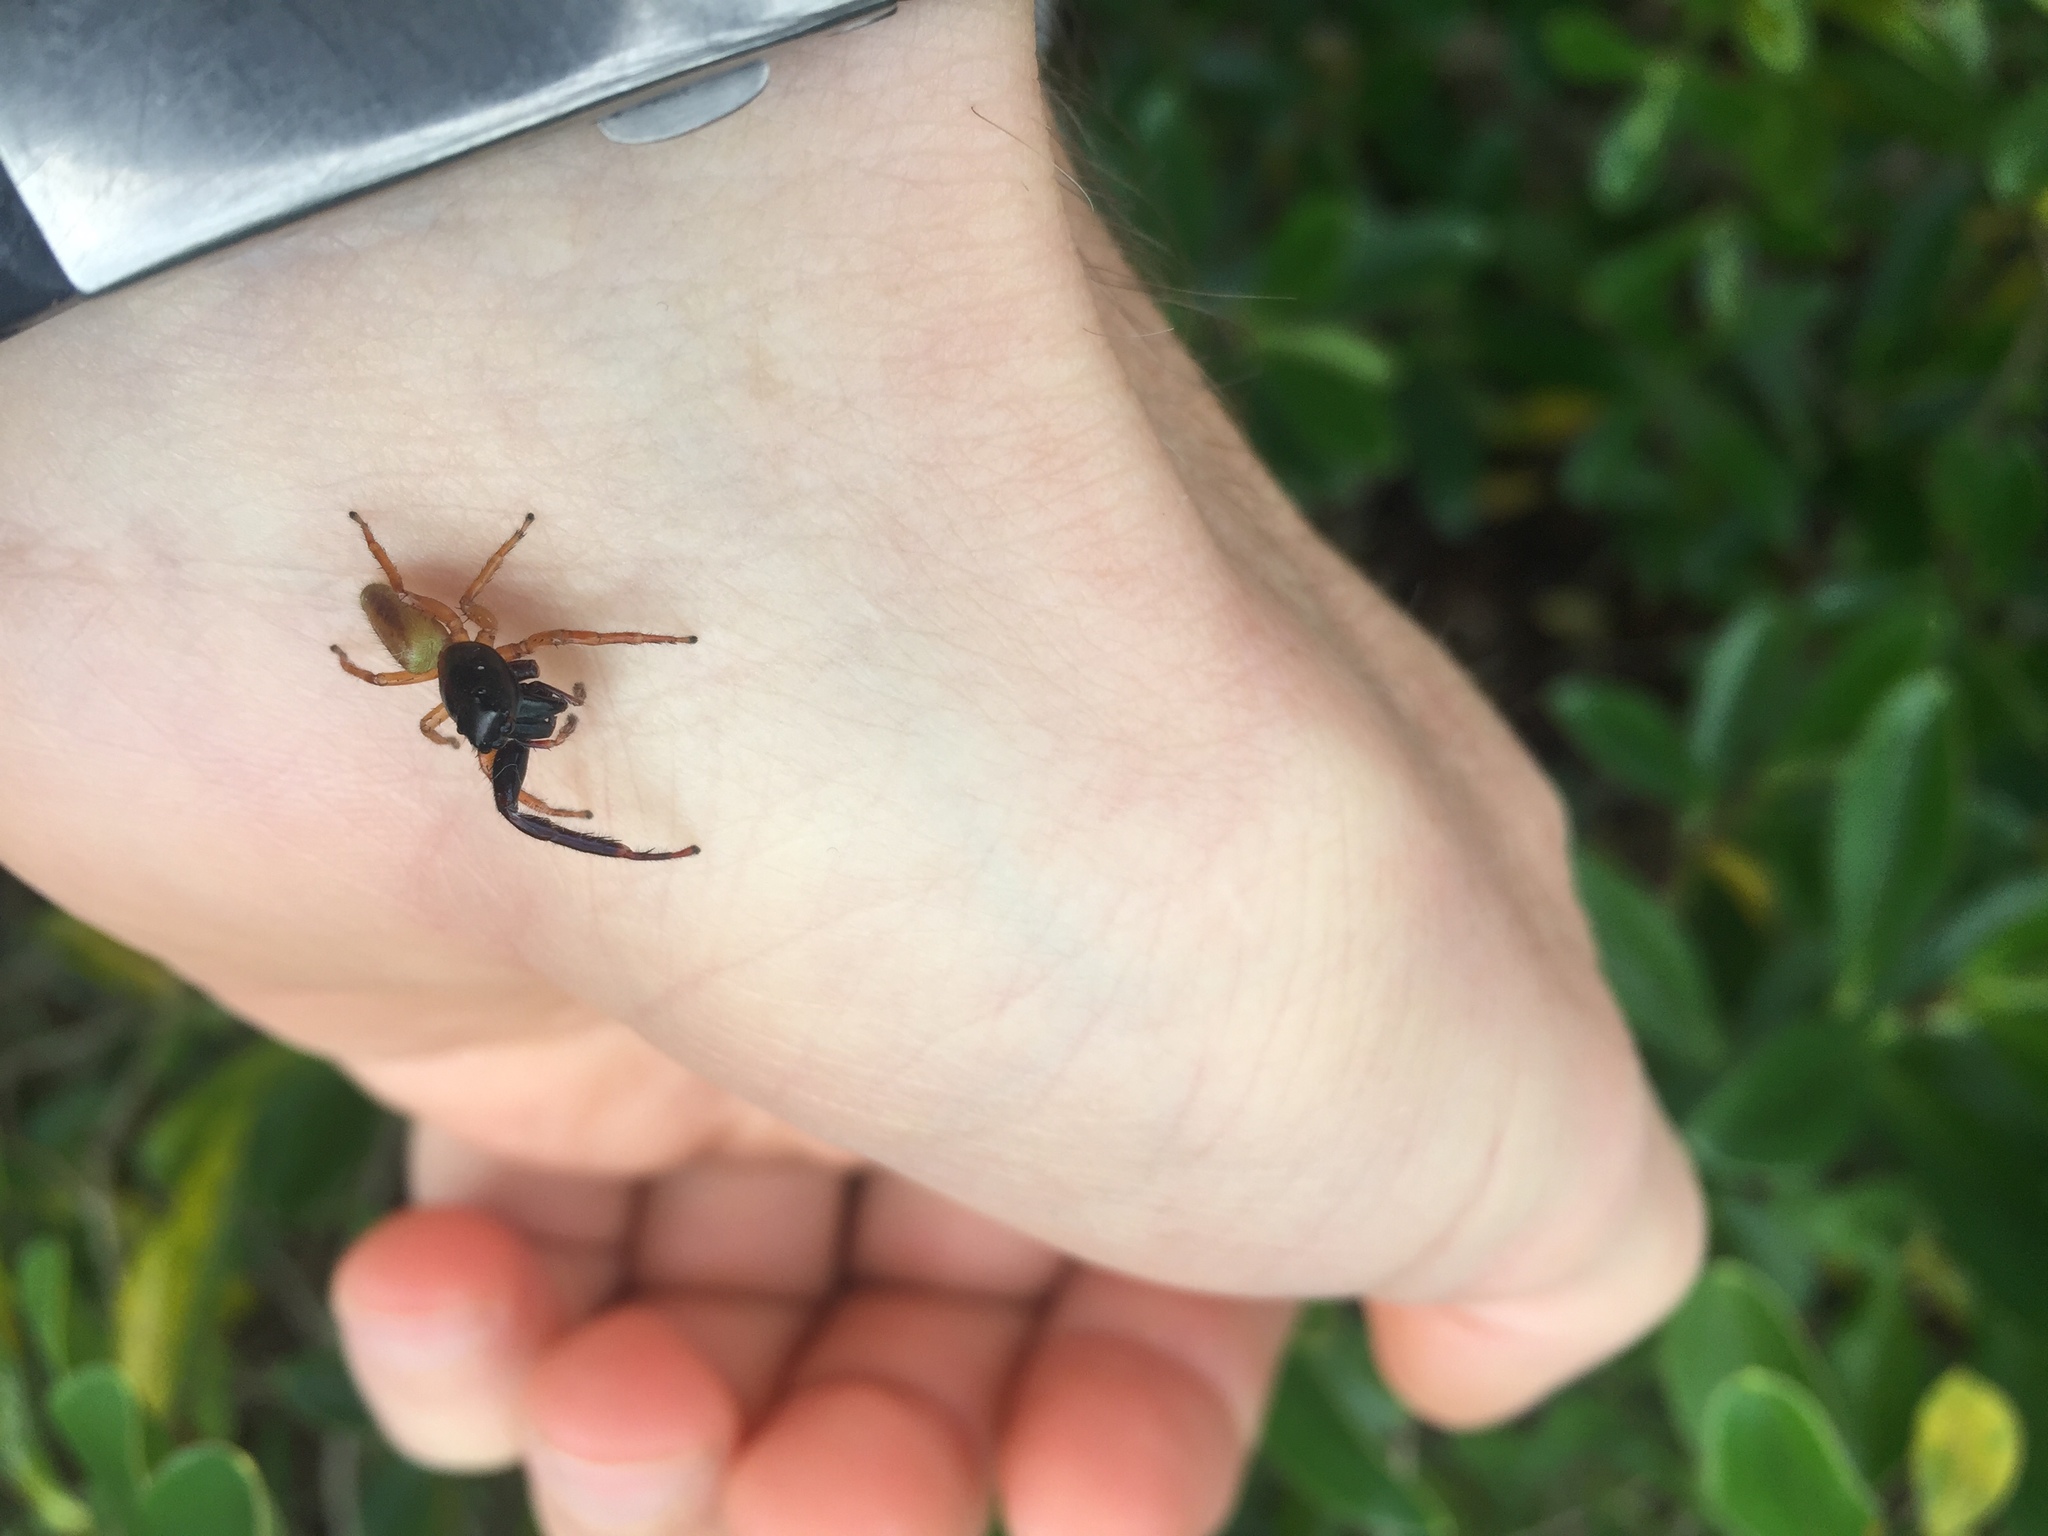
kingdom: Animalia
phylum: Arthropoda
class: Arachnida
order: Araneae
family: Salticidae
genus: Trite
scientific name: Trite planiceps
